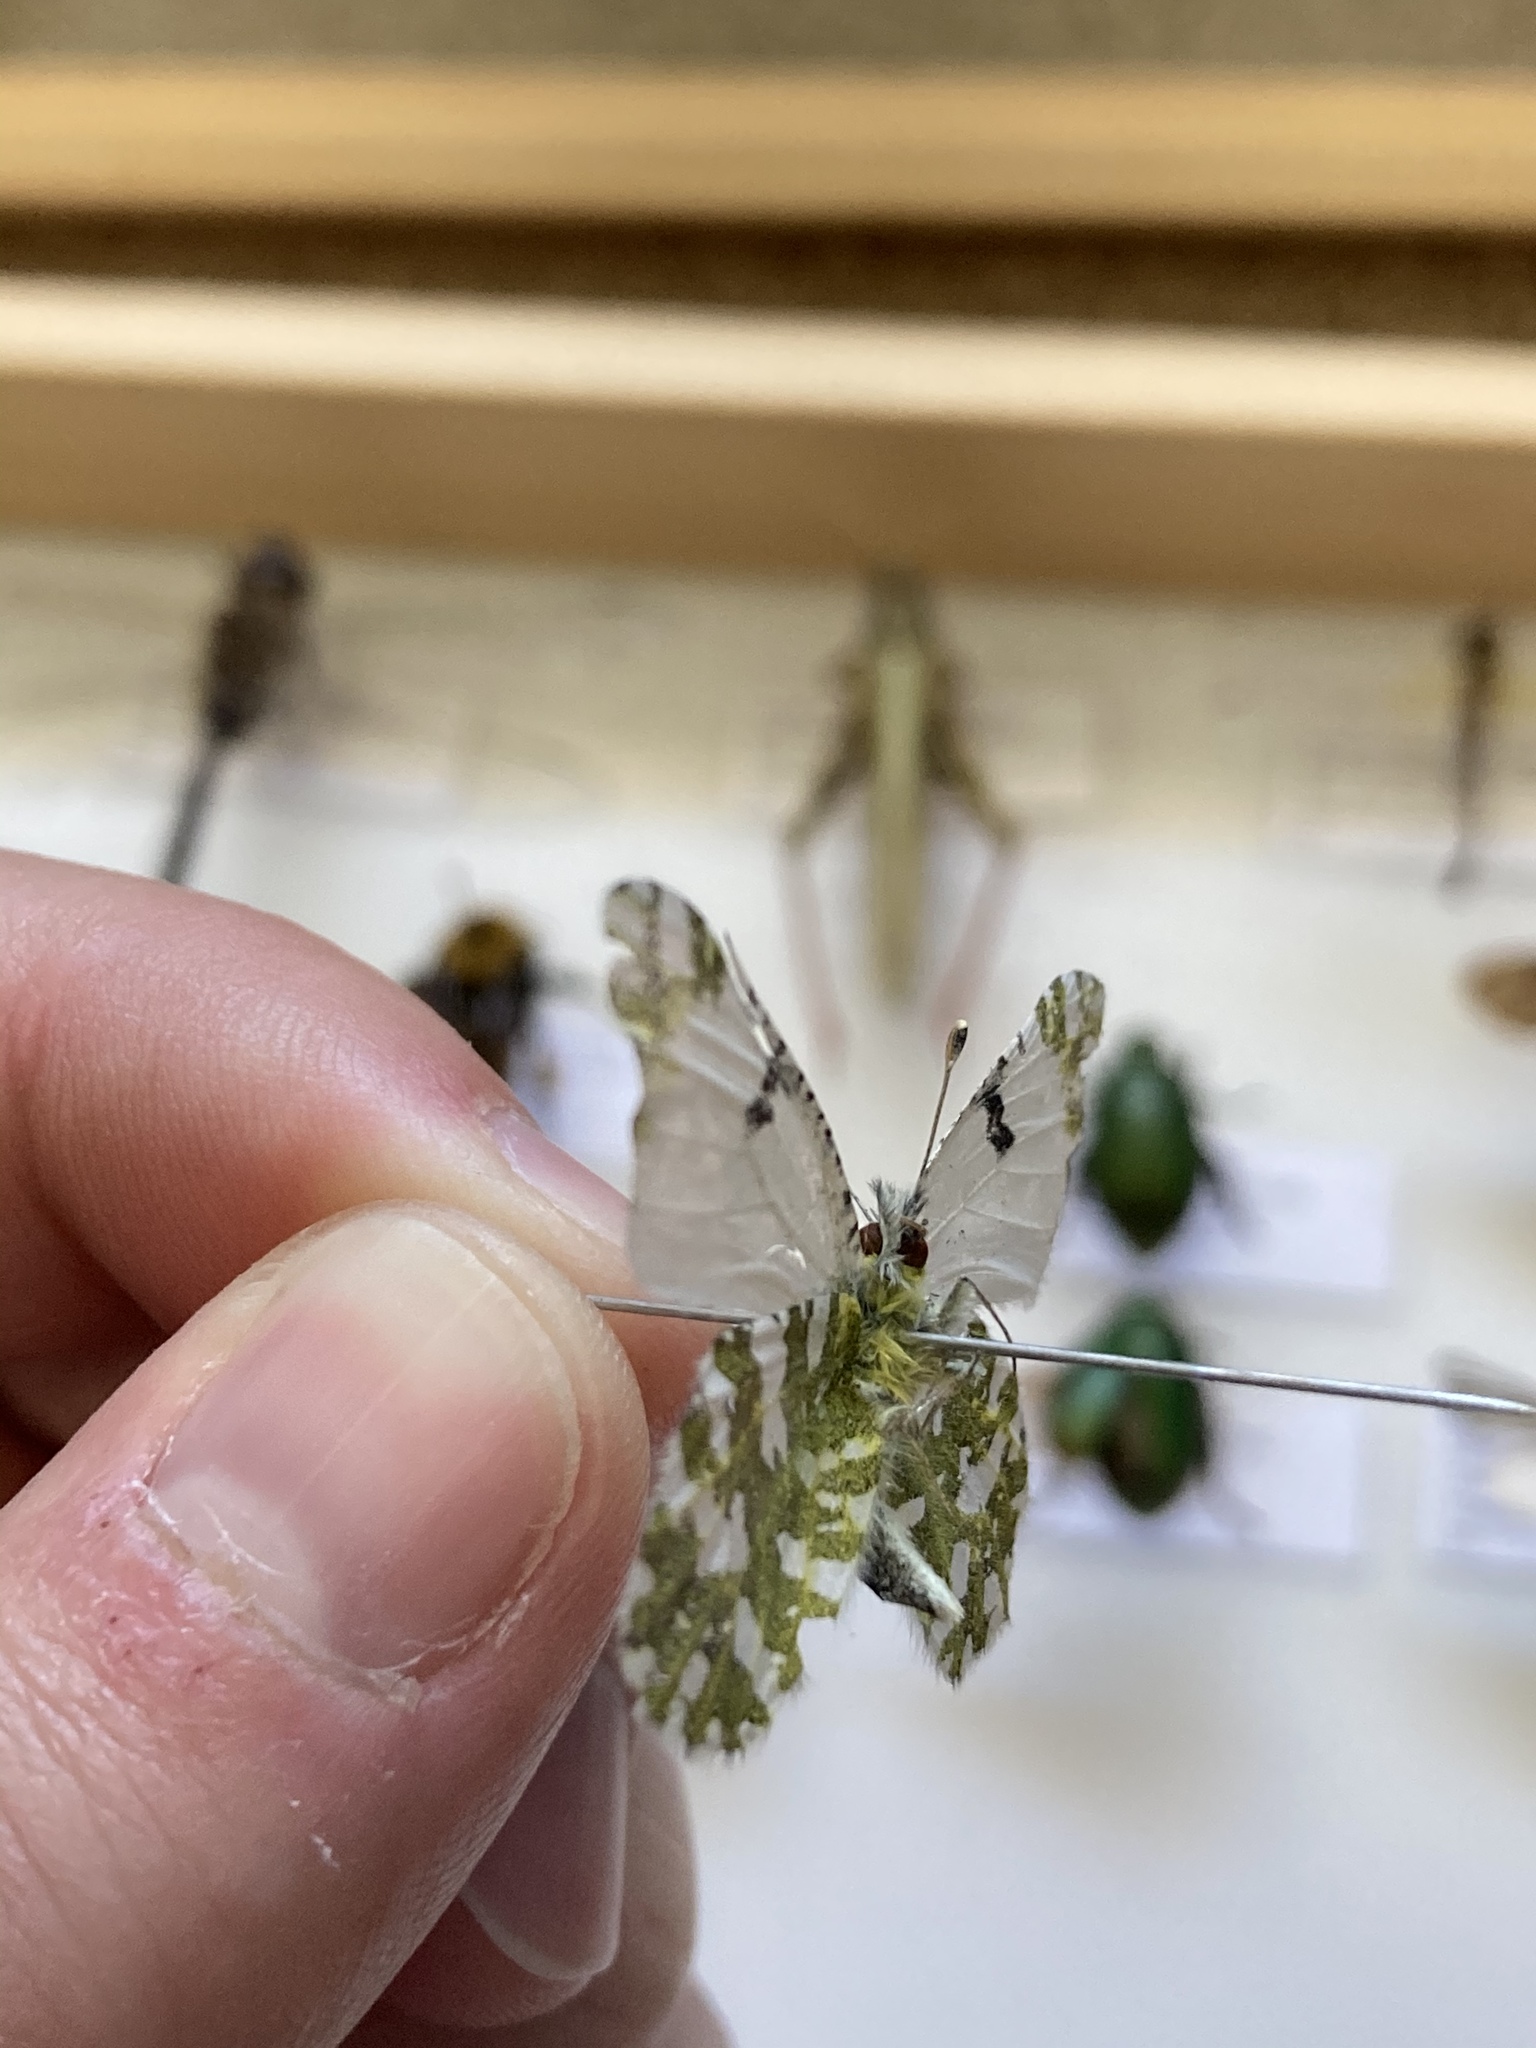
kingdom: Animalia
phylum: Arthropoda
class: Insecta
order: Lepidoptera
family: Pieridae
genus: Euchloe
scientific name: Euchloe ausonides
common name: Creamy marblewing
